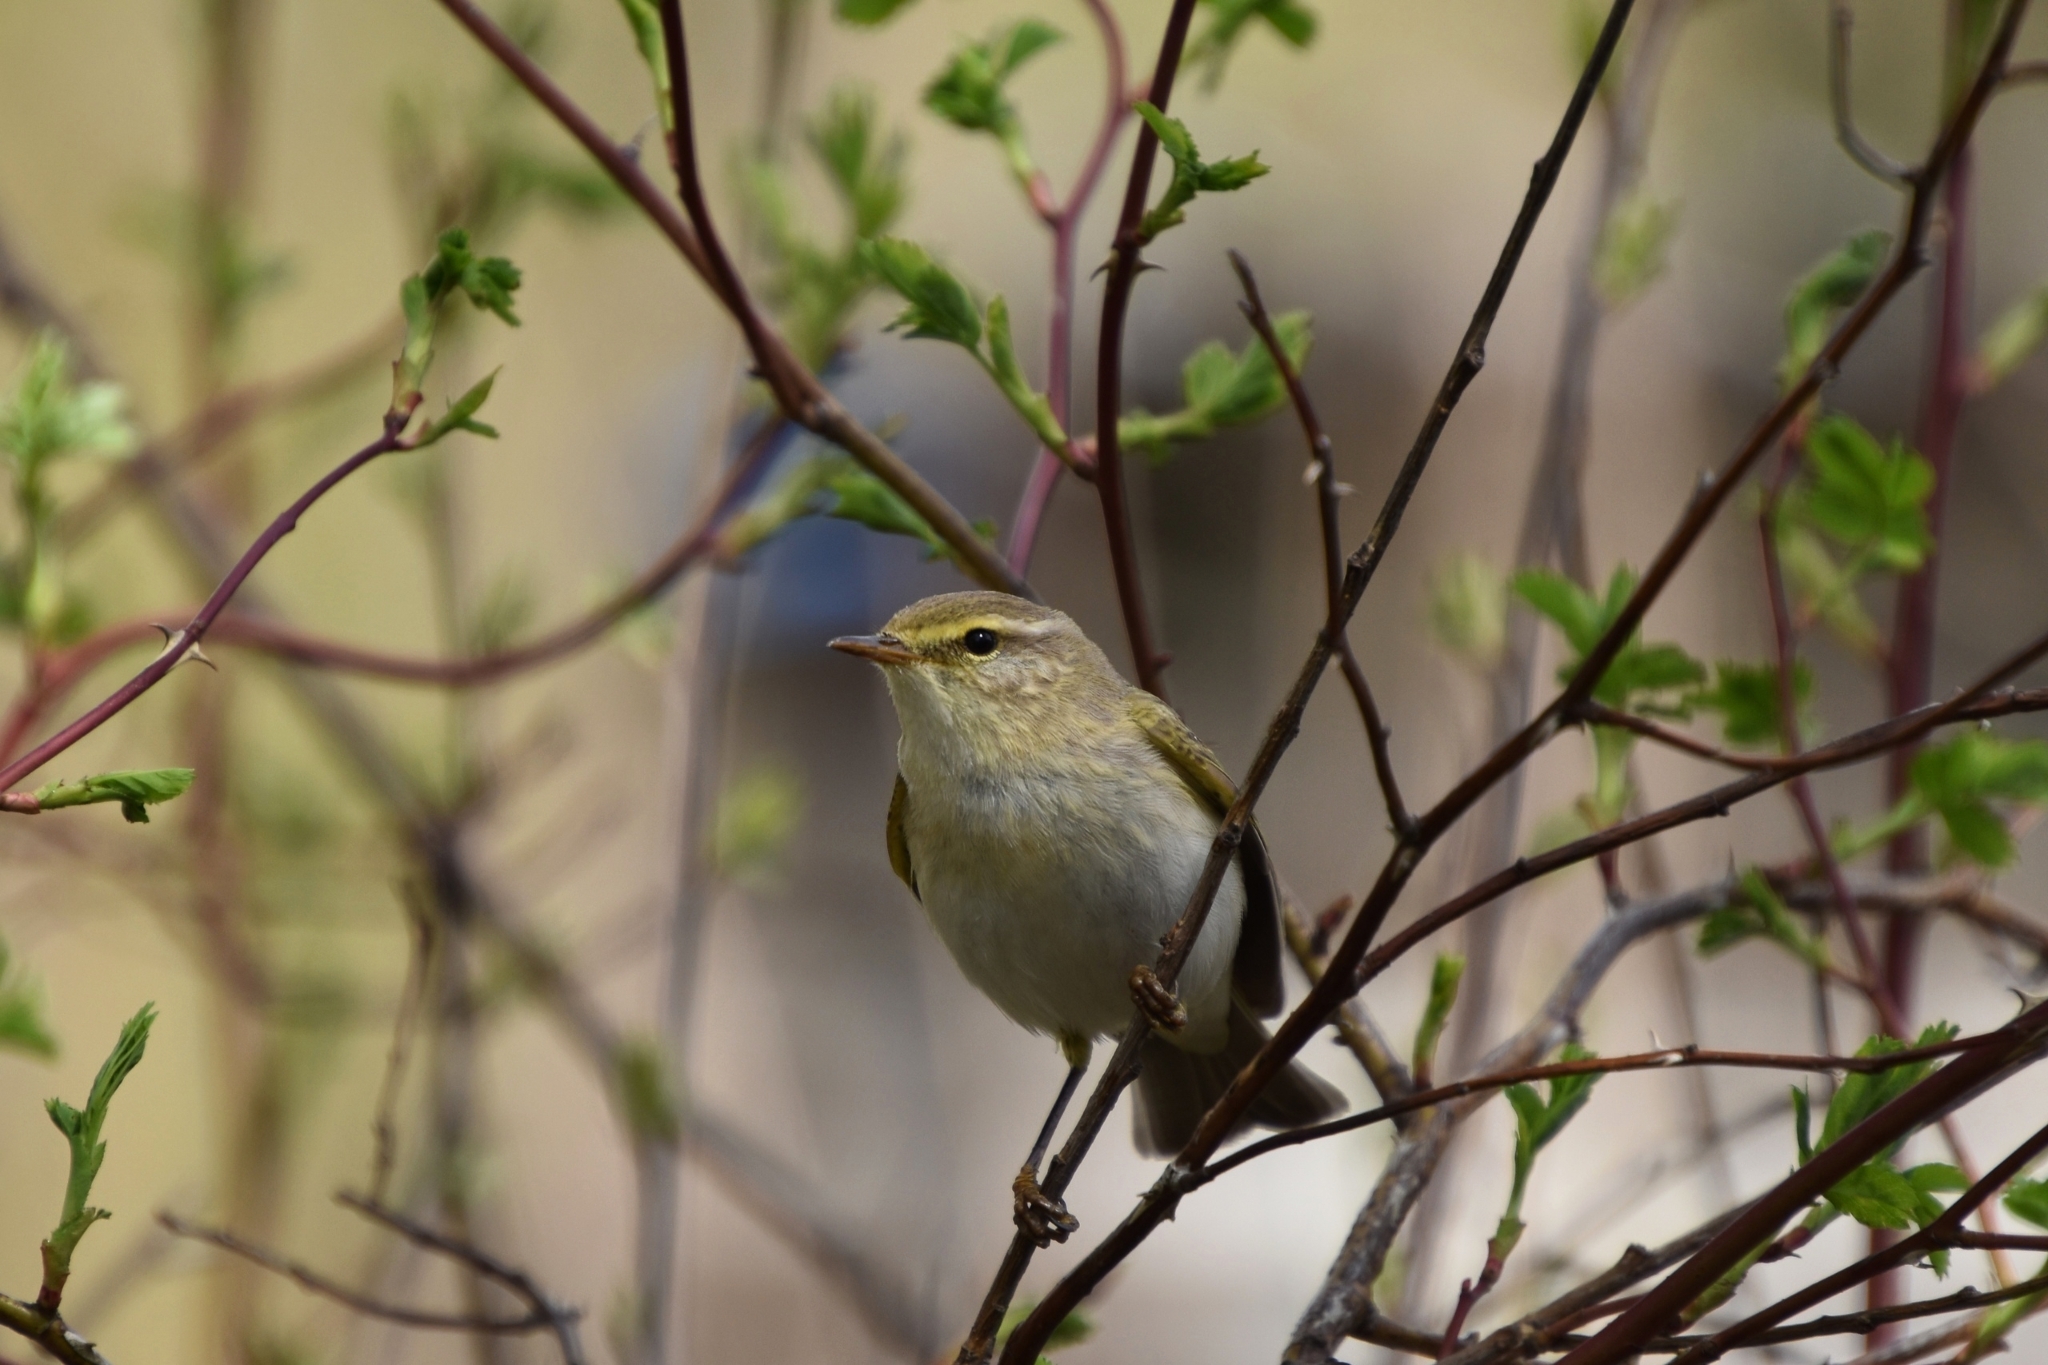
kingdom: Animalia
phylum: Chordata
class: Aves
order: Passeriformes
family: Phylloscopidae
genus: Phylloscopus
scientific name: Phylloscopus trochilus
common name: Willow warbler
